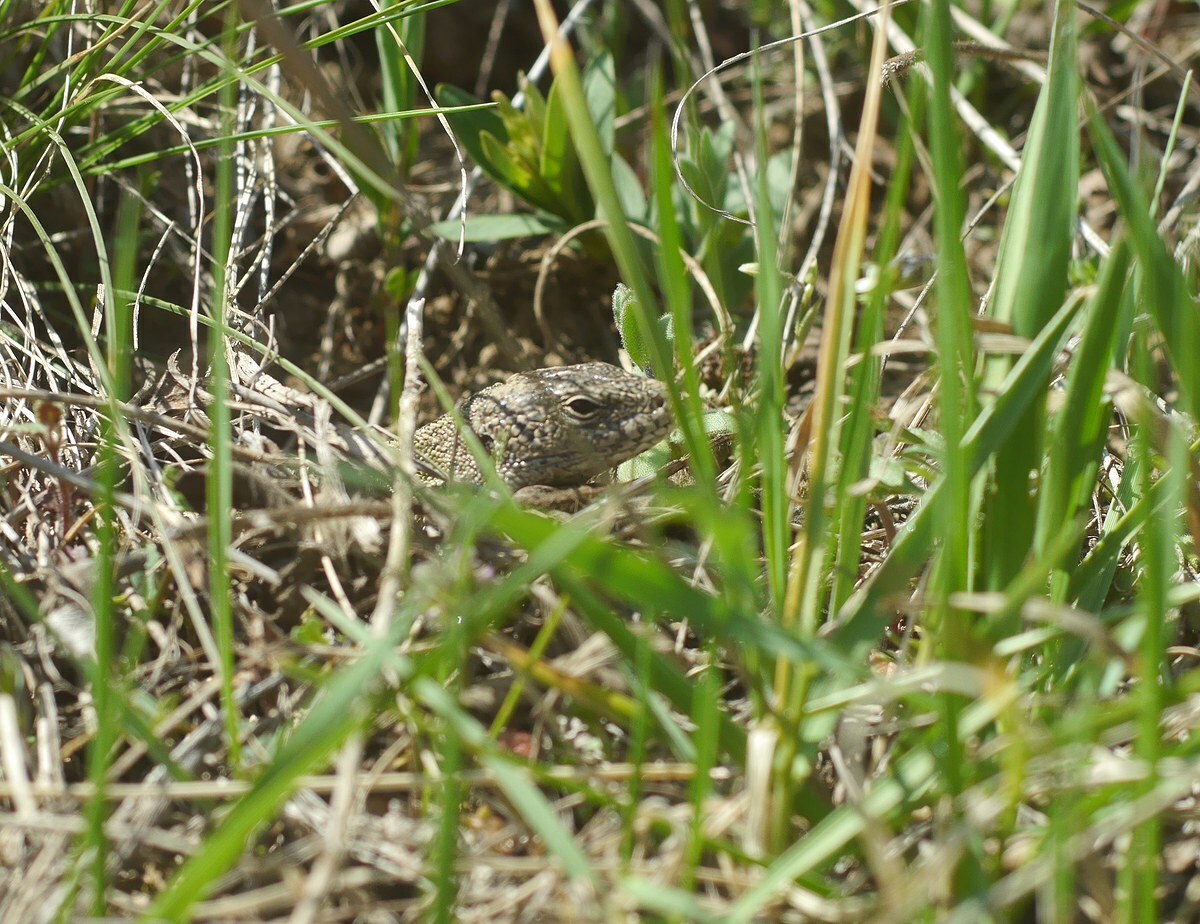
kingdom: Animalia
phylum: Chordata
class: Squamata
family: Lacertidae
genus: Lacerta
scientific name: Lacerta agilis
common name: Sand lizard
